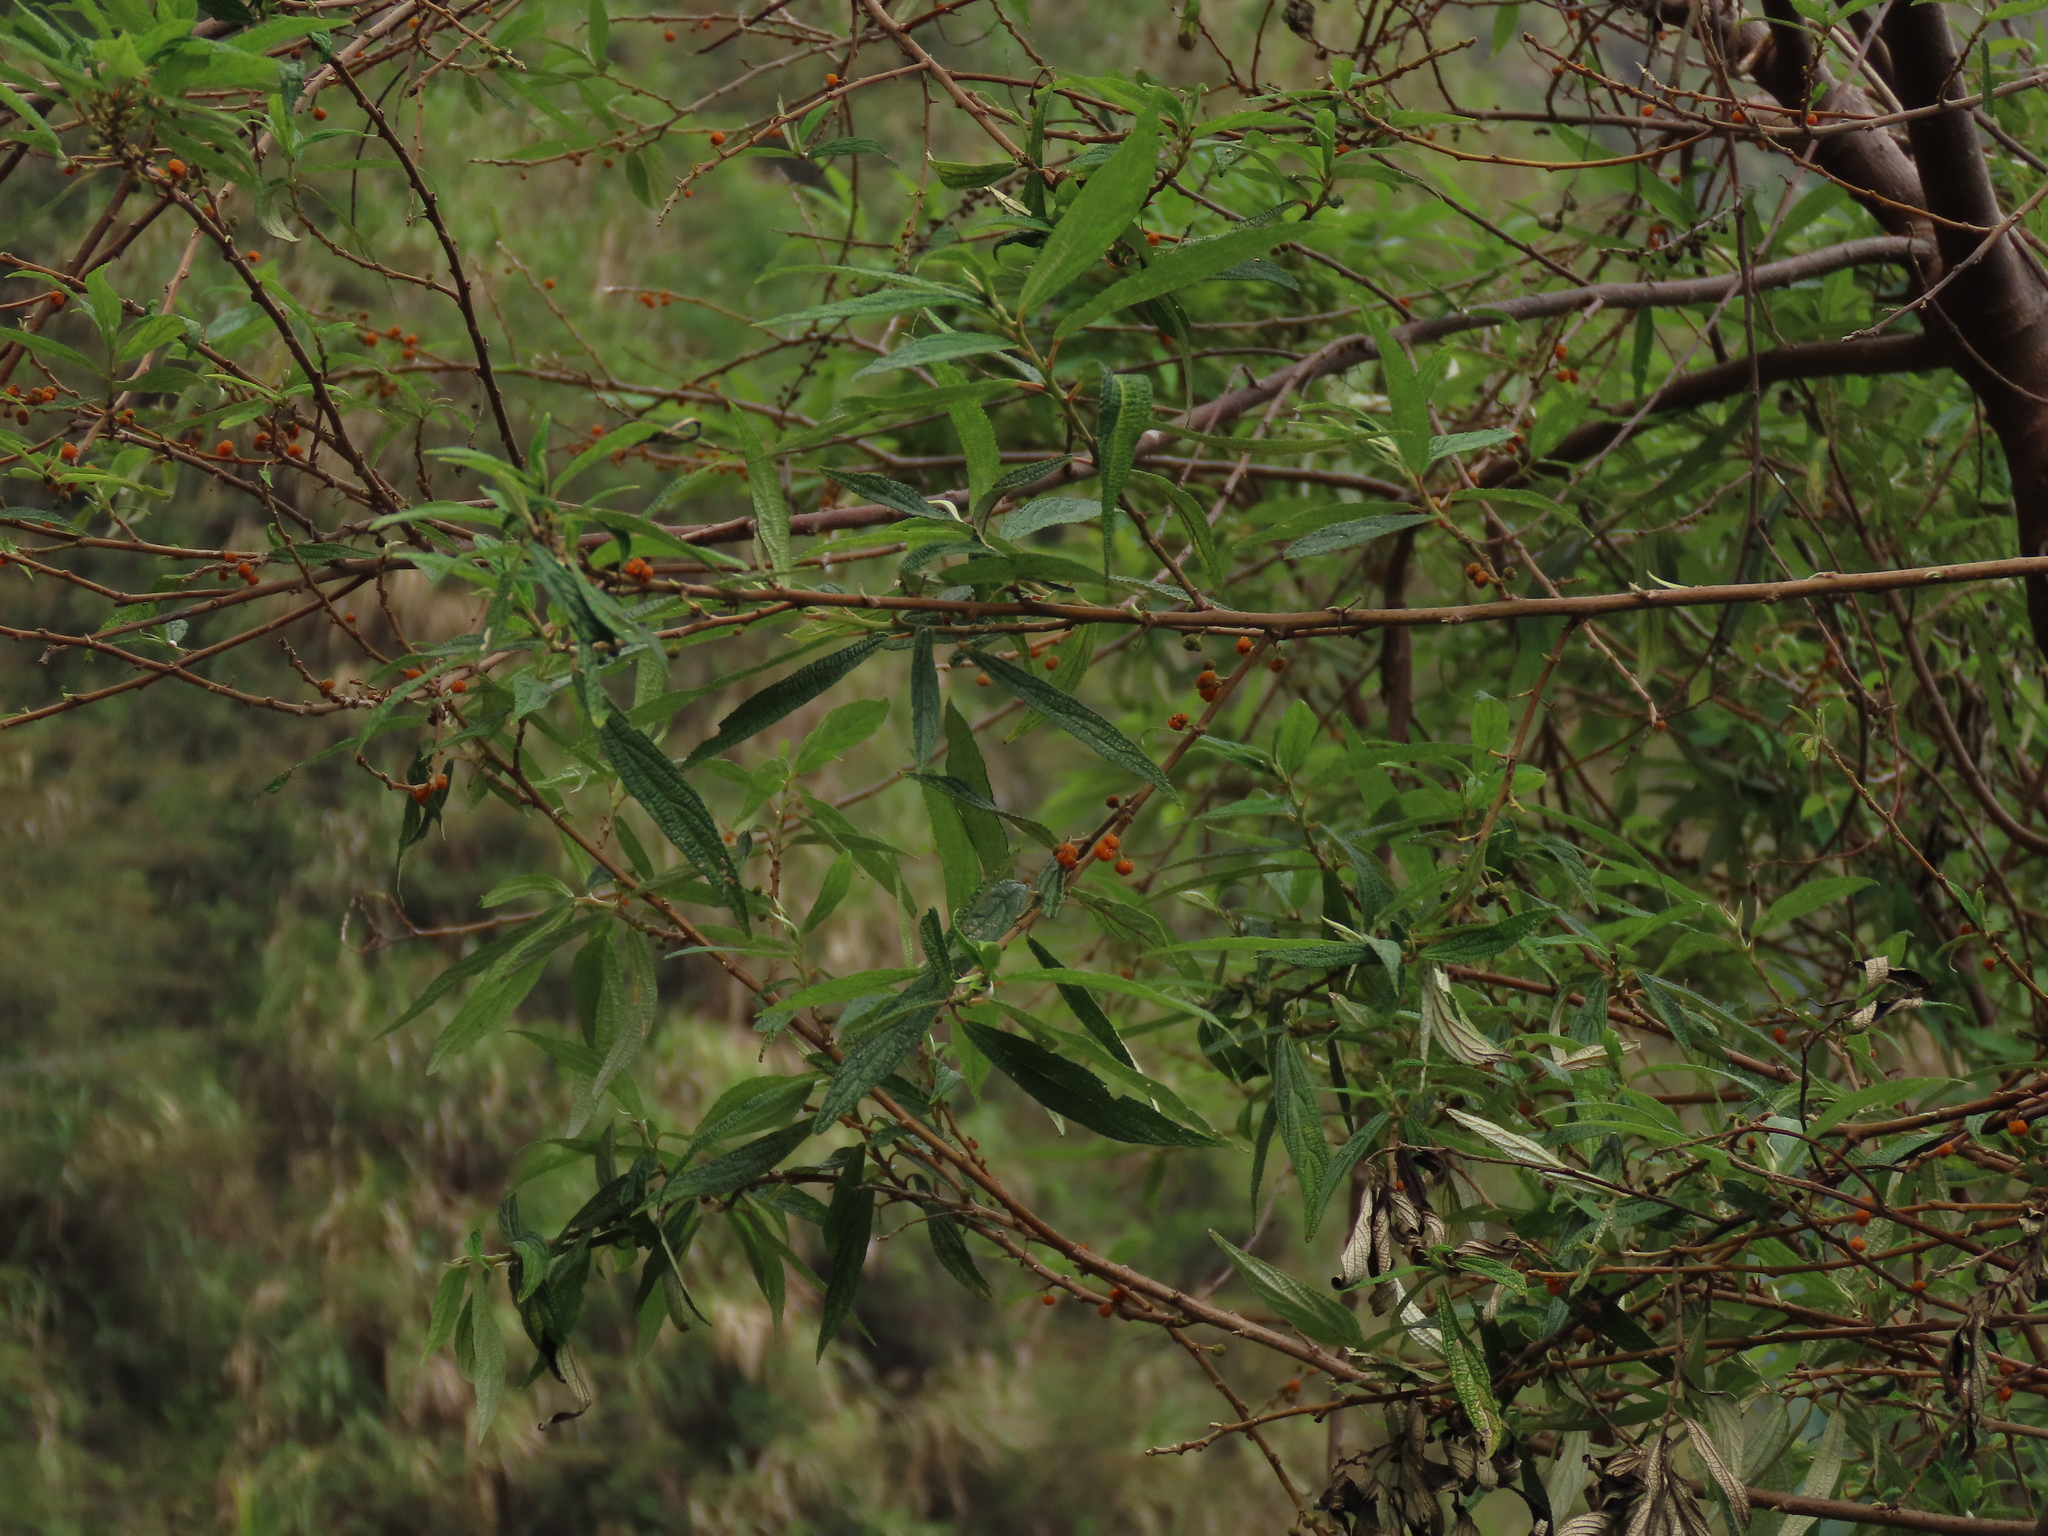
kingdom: Plantae
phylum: Tracheophyta
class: Magnoliopsida
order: Rosales
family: Urticaceae
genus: Debregeasia
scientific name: Debregeasia orientalis
